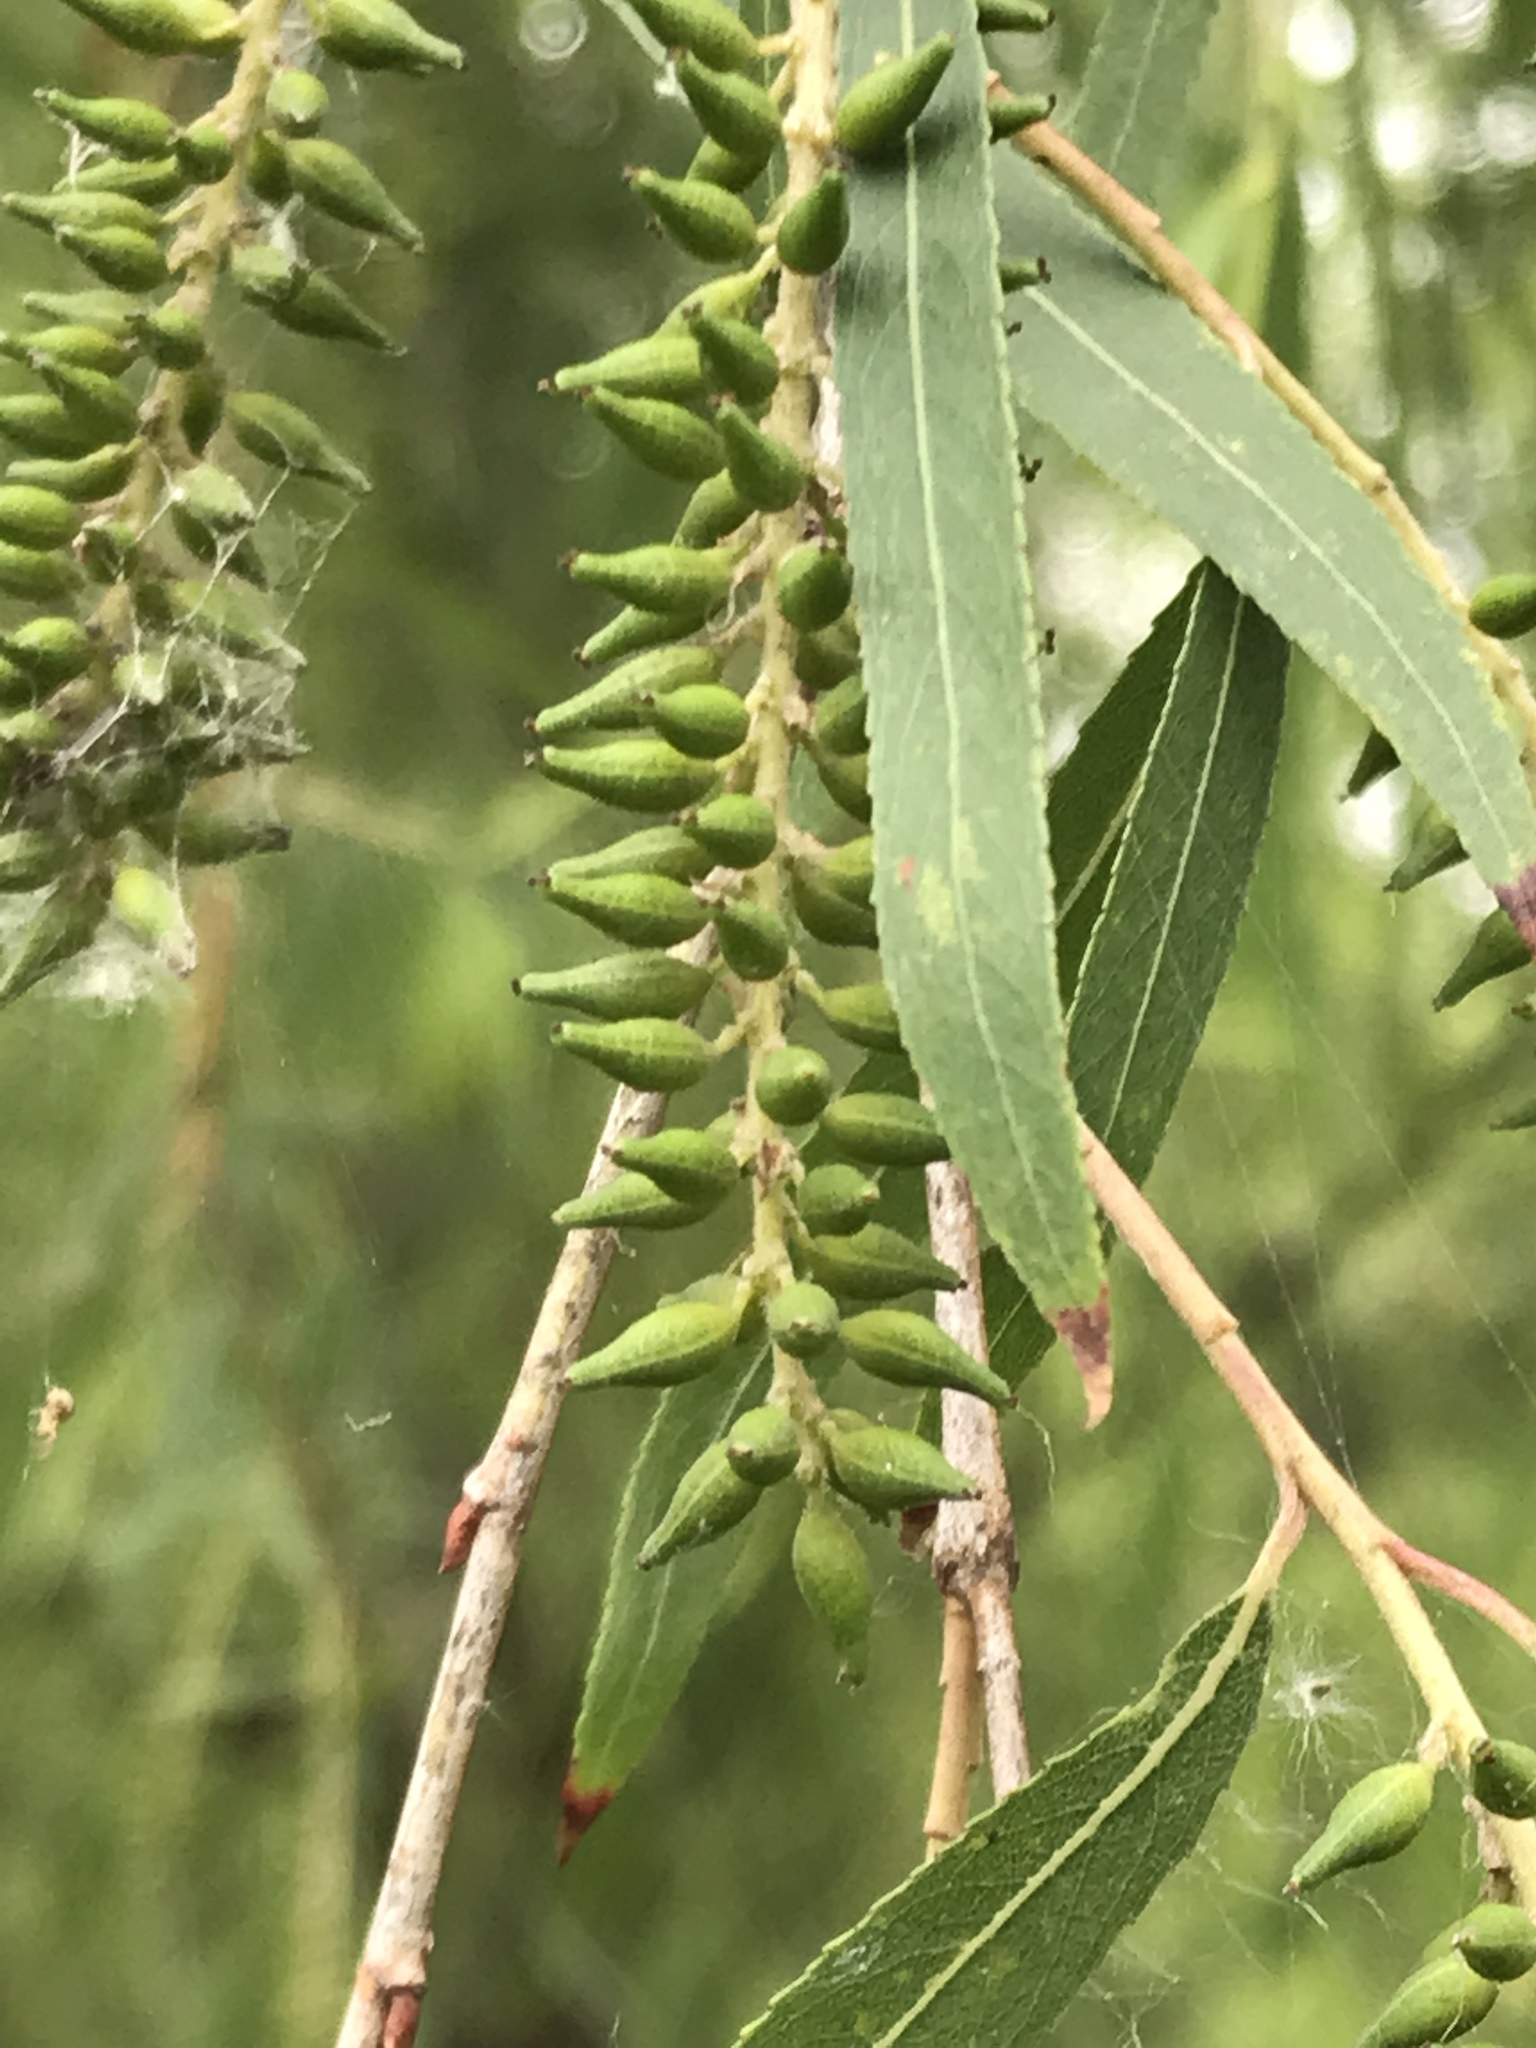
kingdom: Plantae
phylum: Tracheophyta
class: Magnoliopsida
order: Malpighiales
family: Salicaceae
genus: Salix
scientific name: Salix nigra
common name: Black willow
